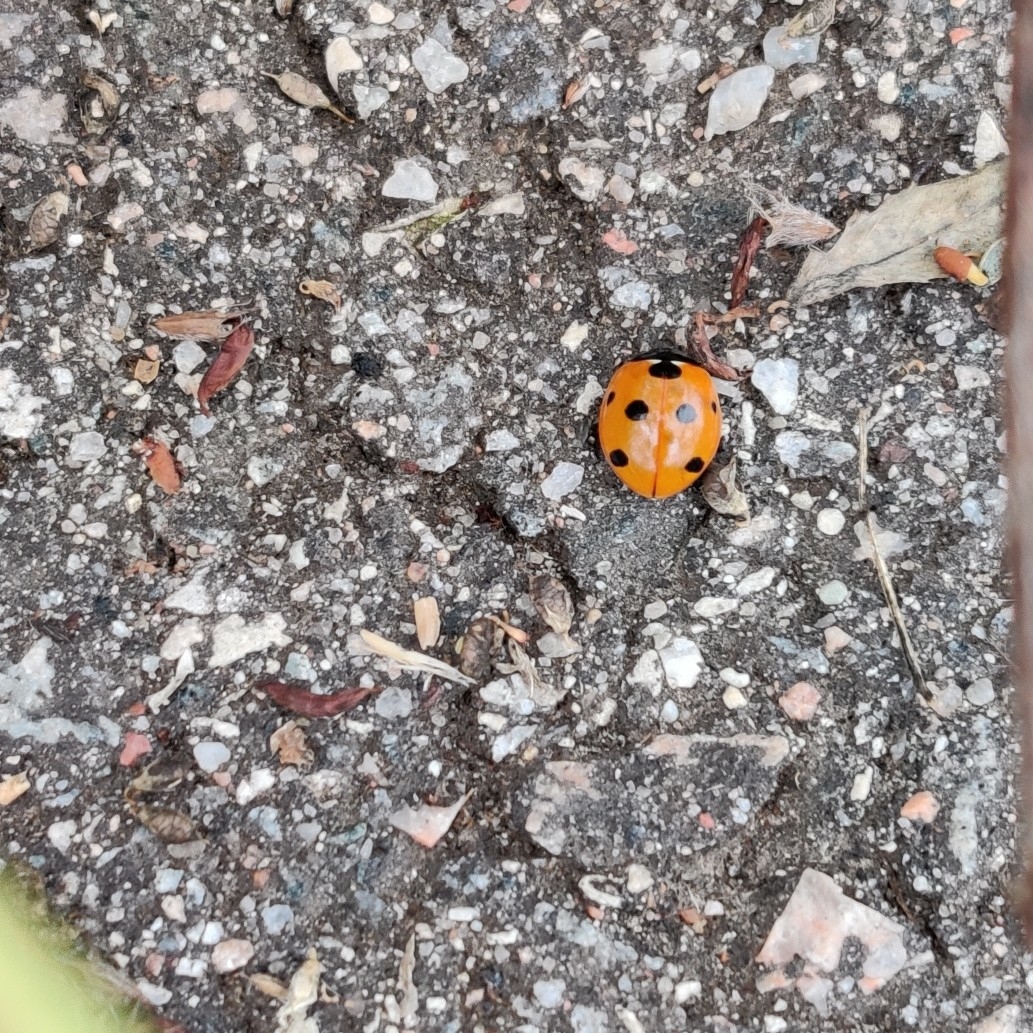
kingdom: Animalia
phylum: Arthropoda
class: Insecta
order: Coleoptera
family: Coccinellidae
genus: Coccinella
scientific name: Coccinella septempunctata
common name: Sevenspotted lady beetle
